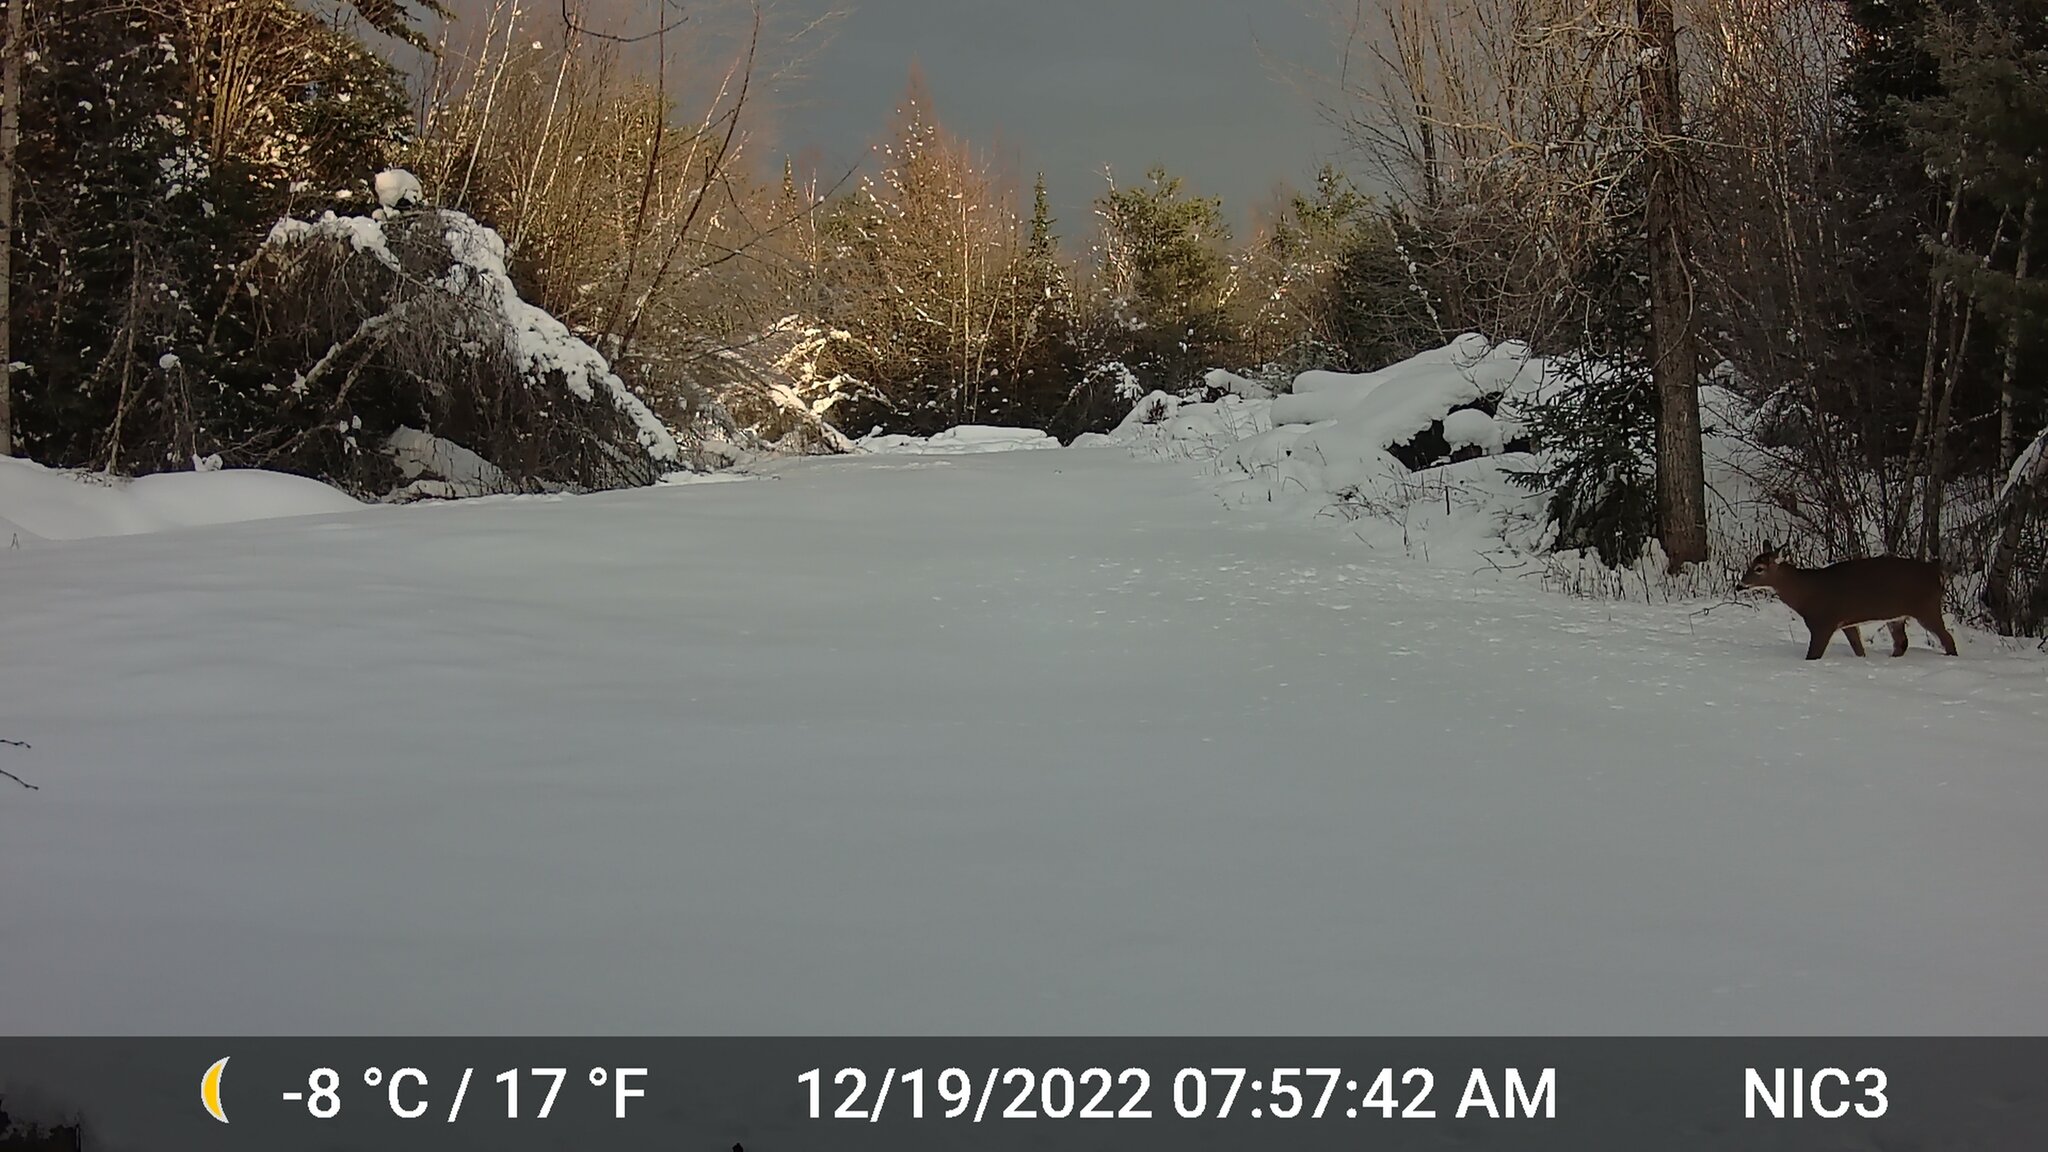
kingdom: Animalia
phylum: Chordata
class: Mammalia
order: Artiodactyla
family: Cervidae
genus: Odocoileus
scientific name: Odocoileus virginianus
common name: White-tailed deer
